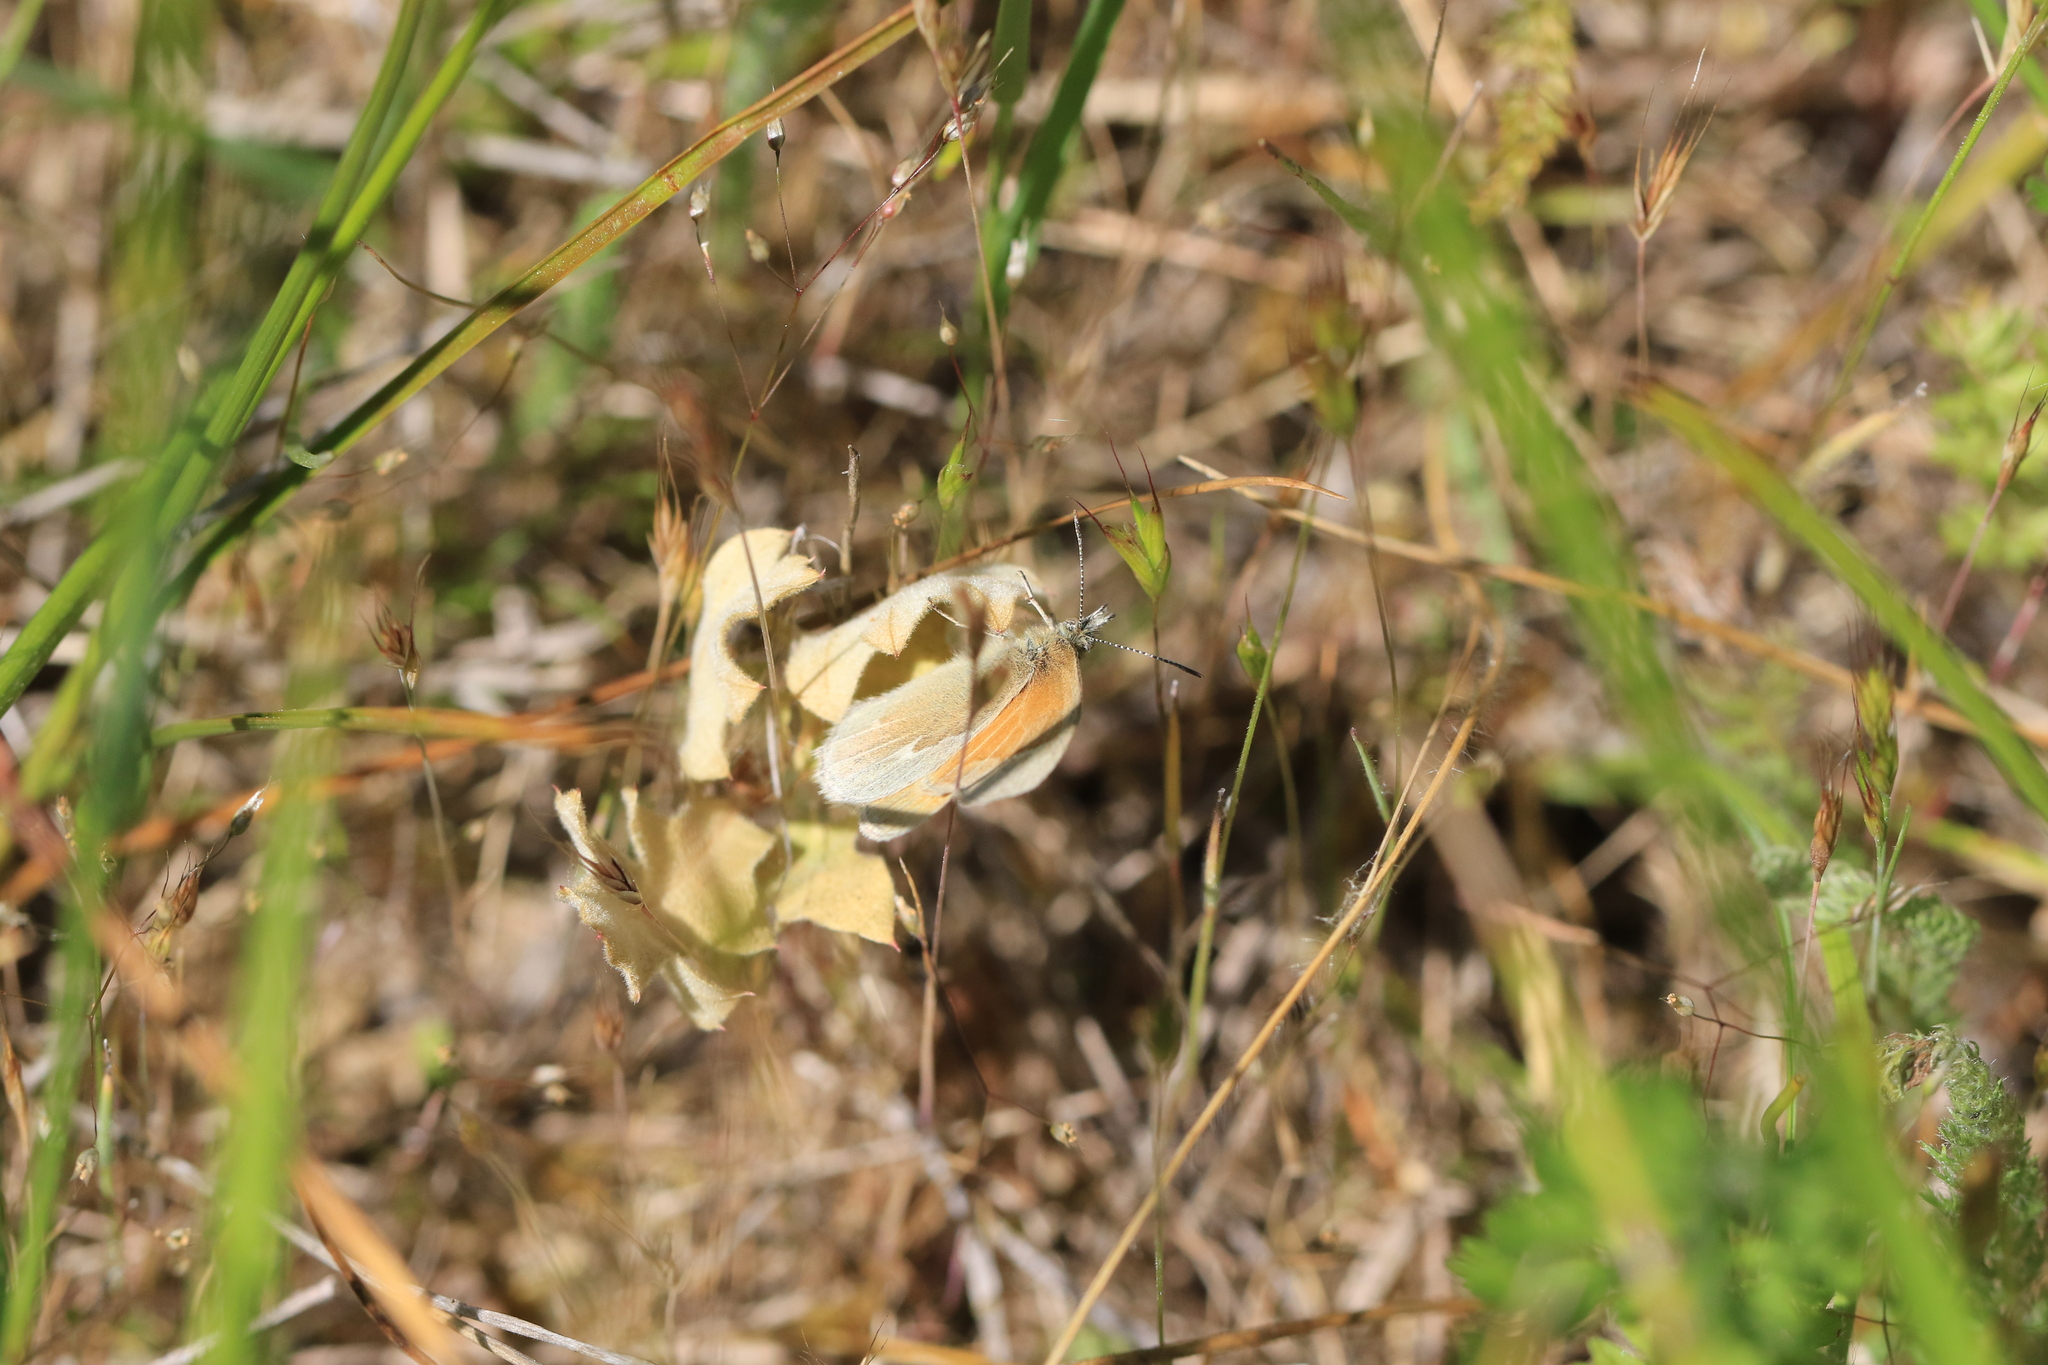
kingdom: Animalia
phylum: Arthropoda
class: Insecta
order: Lepidoptera
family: Nymphalidae
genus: Coenonympha
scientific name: Coenonympha california
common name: Common ringlet
